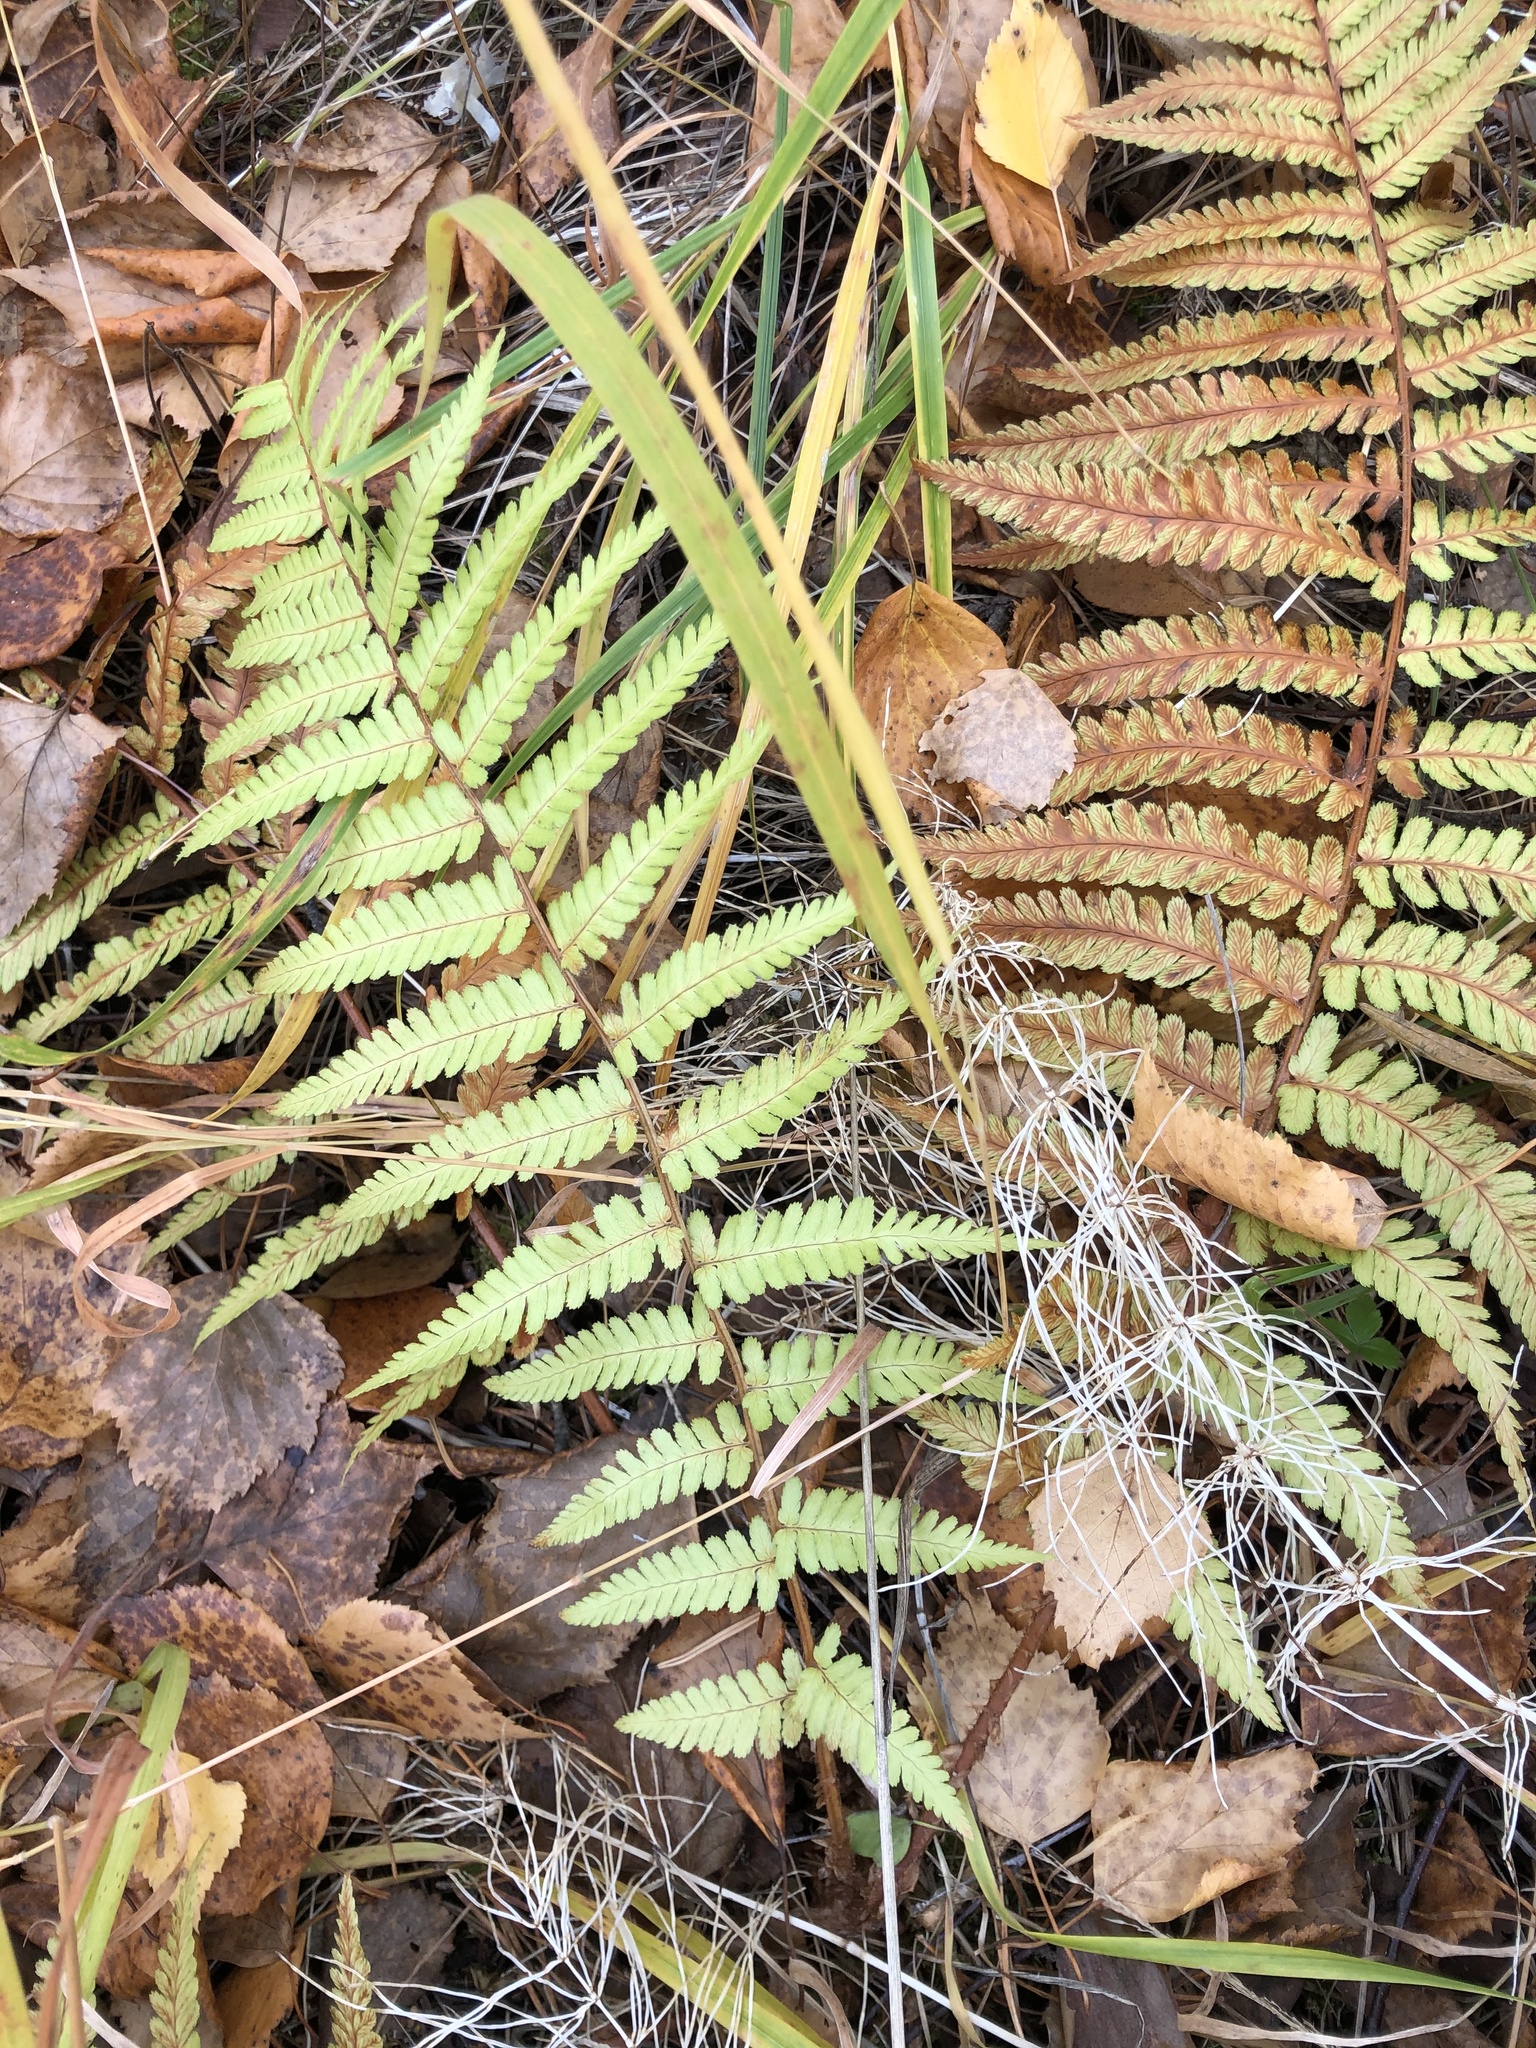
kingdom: Plantae
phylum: Tracheophyta
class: Polypodiopsida
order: Polypodiales
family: Dryopteridaceae
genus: Dryopteris
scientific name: Dryopteris filix-mas
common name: Male fern
